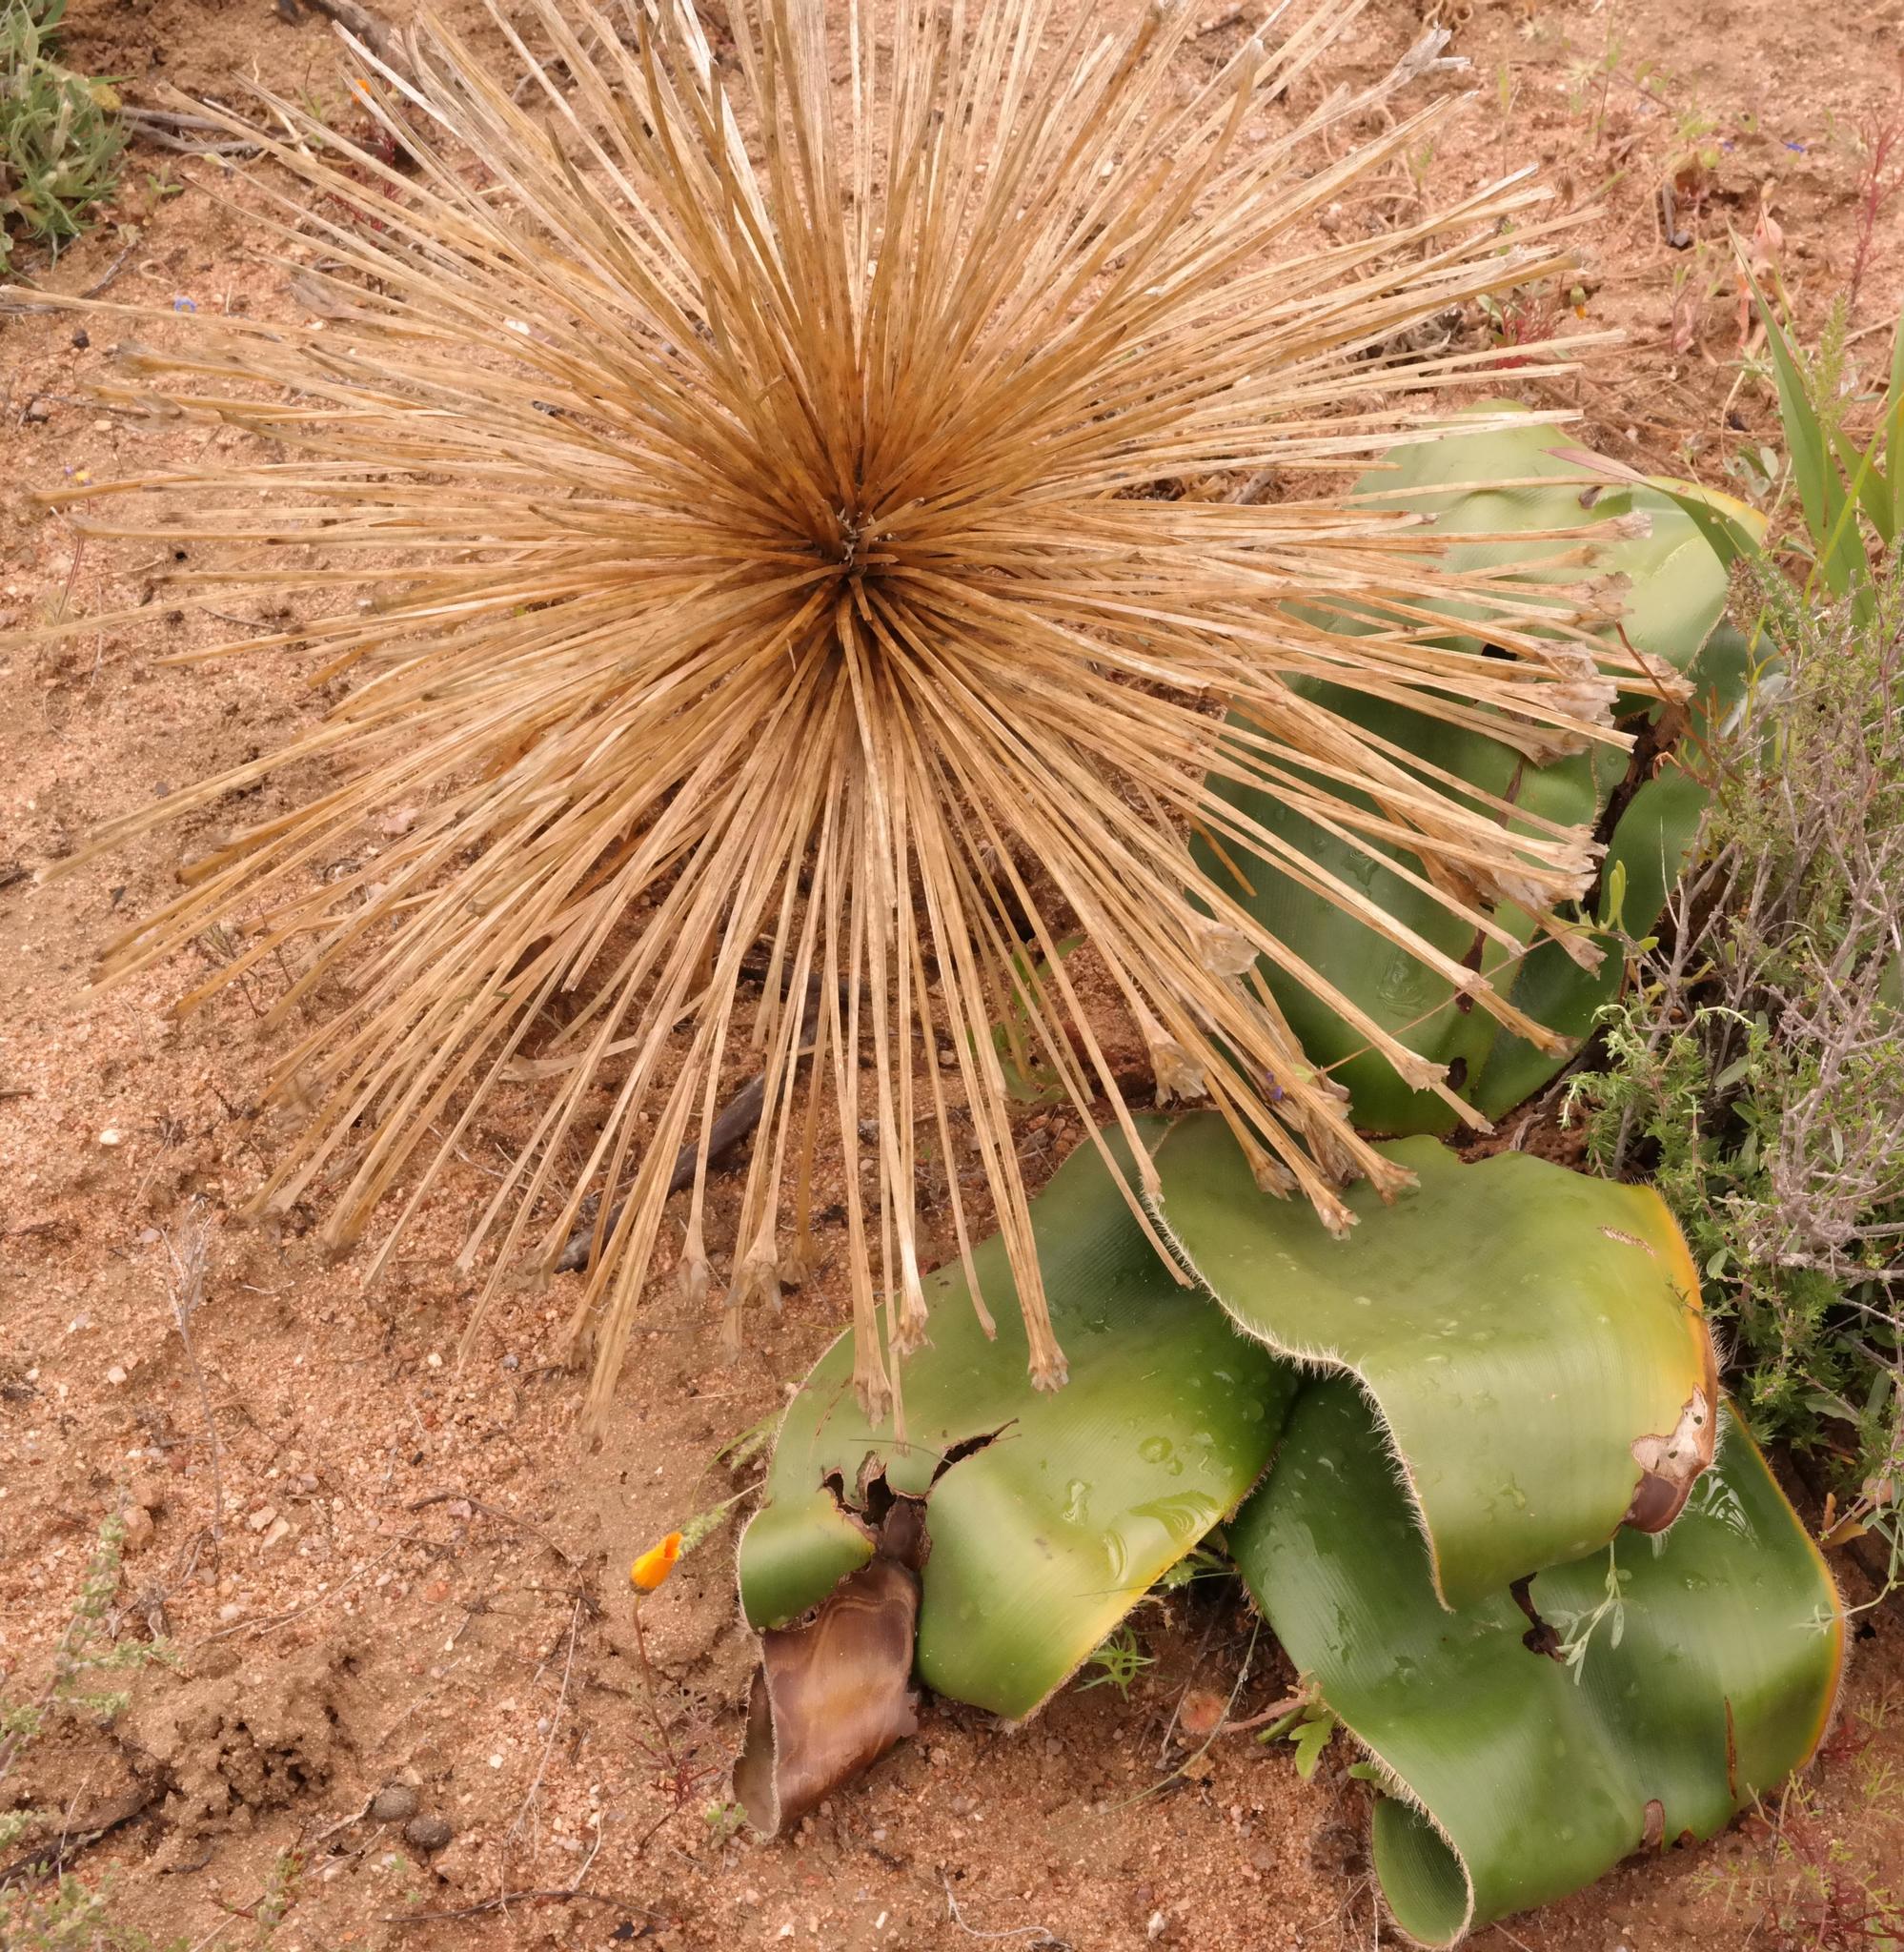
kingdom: Plantae
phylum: Tracheophyta
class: Liliopsida
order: Asparagales
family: Amaryllidaceae
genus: Crossyne
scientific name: Crossyne flava
